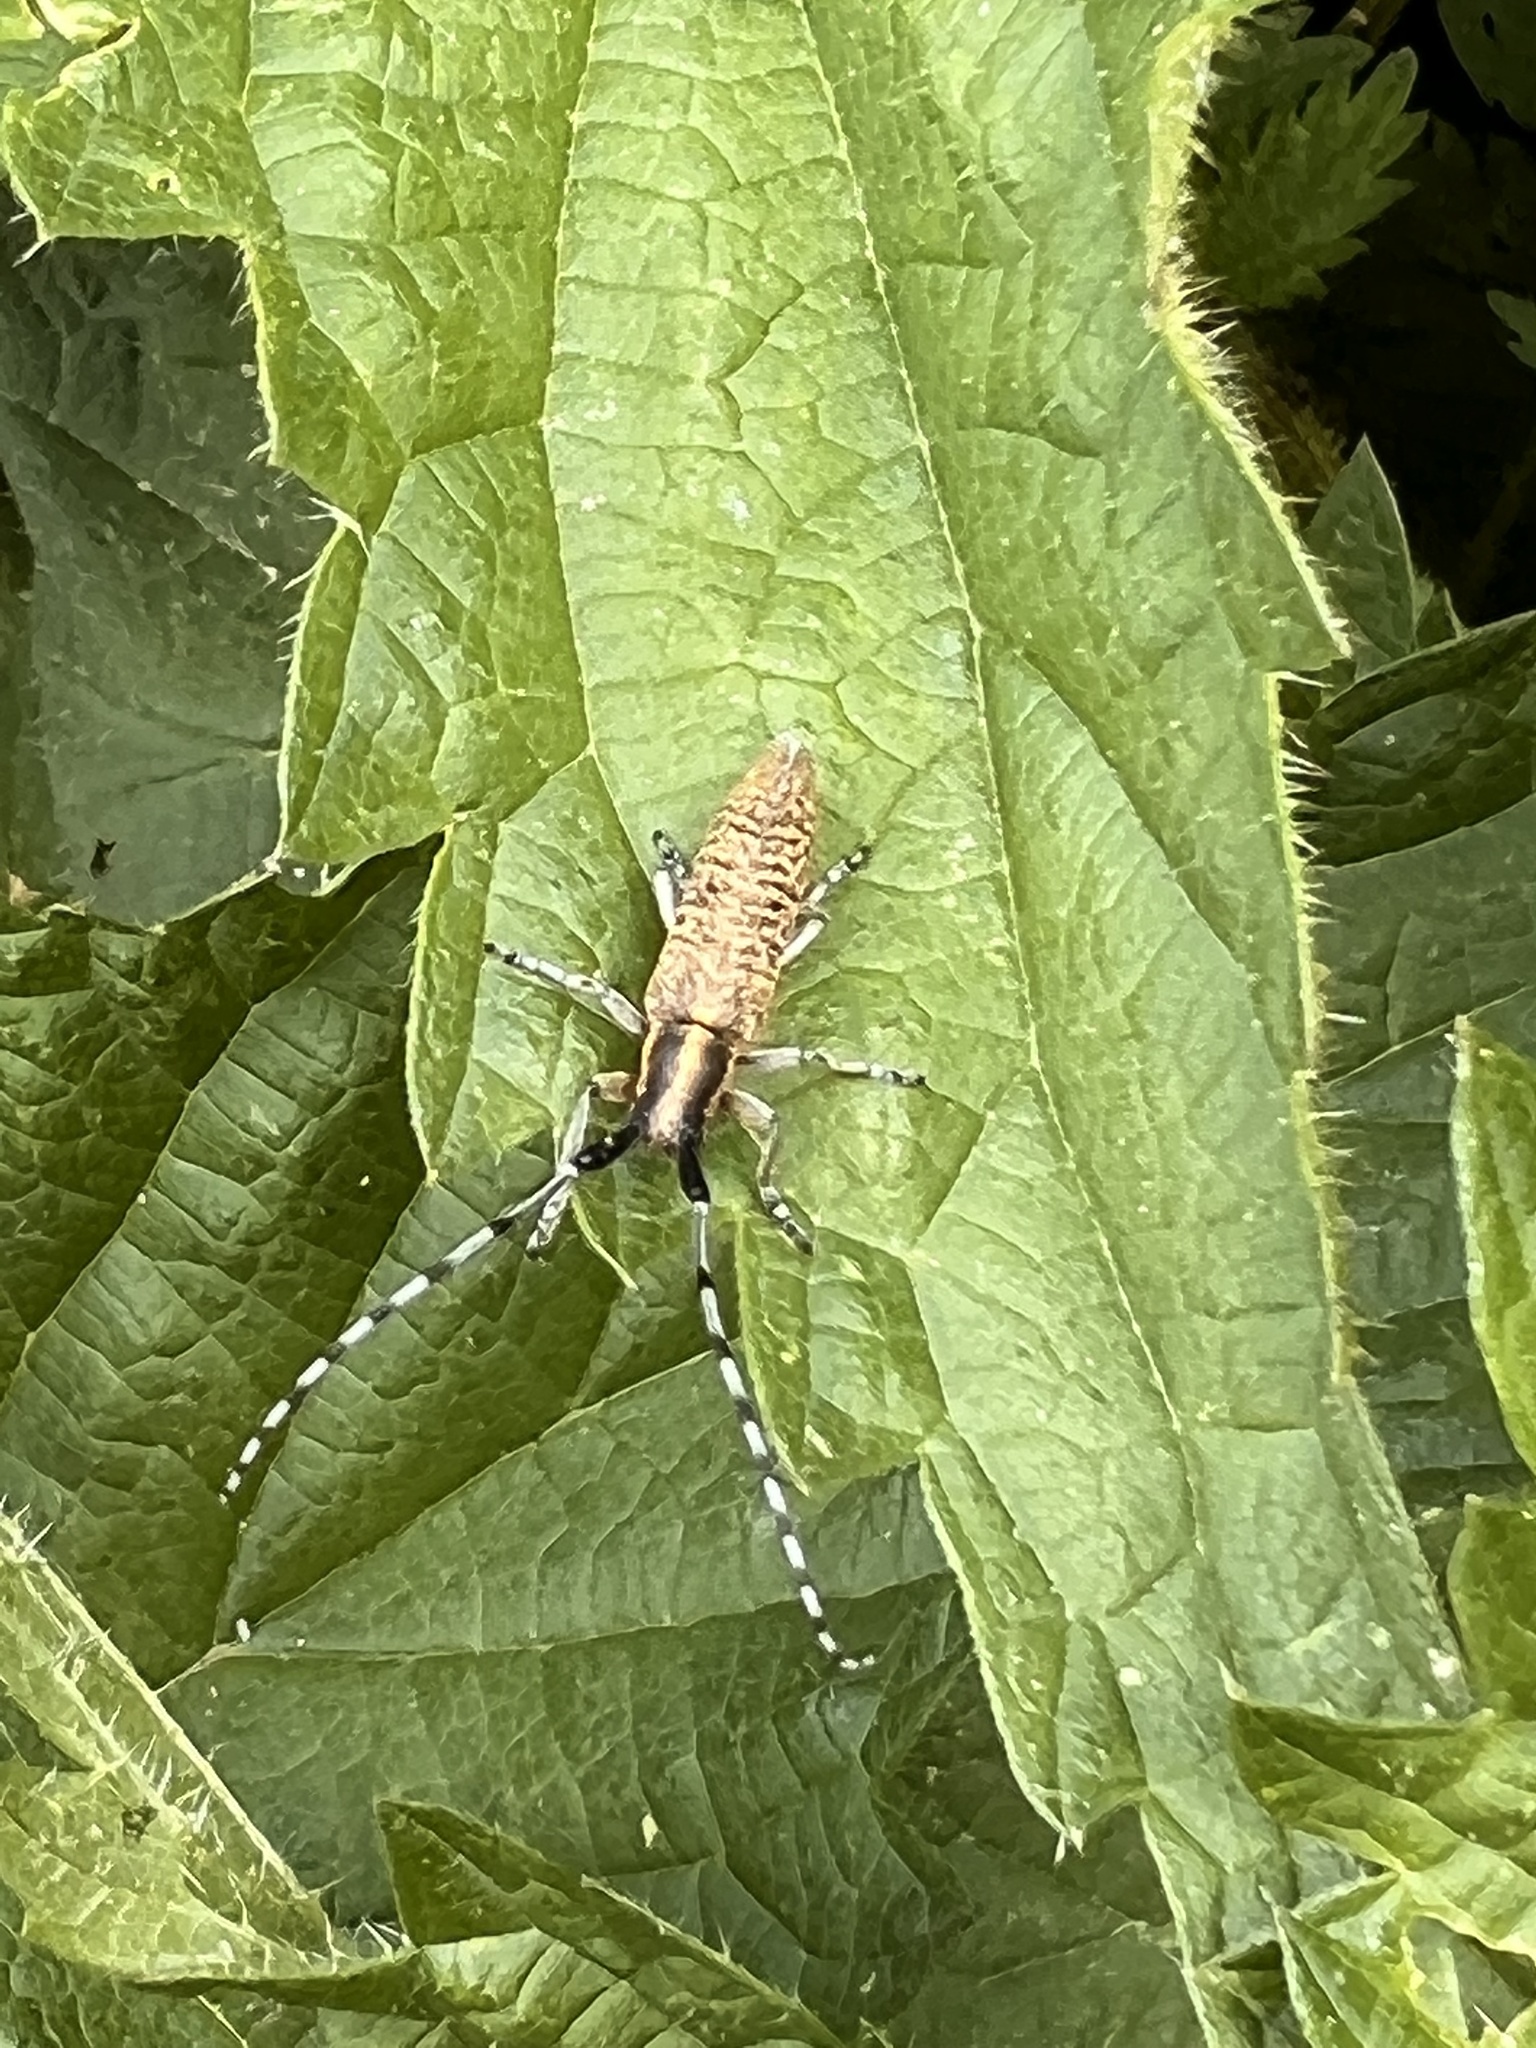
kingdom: Animalia
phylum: Arthropoda
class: Insecta
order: Coleoptera
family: Cerambycidae
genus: Agapanthia
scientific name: Agapanthia villosoviridescens
